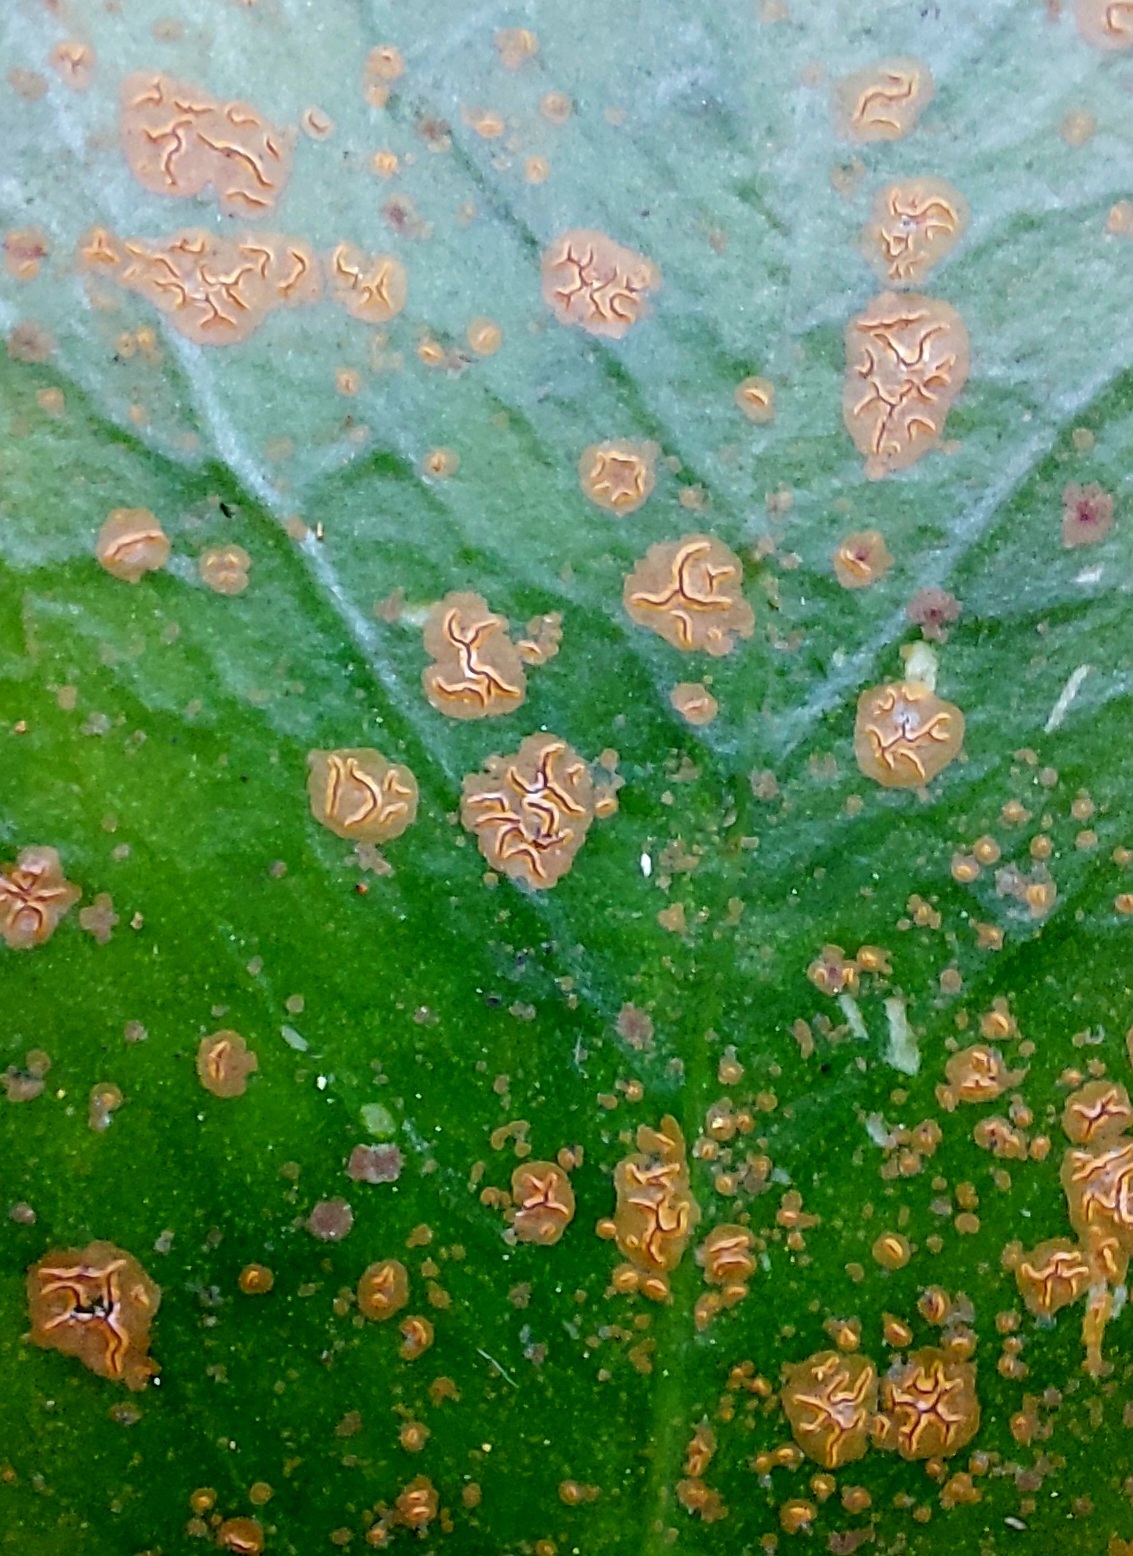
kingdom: Fungi
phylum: Ascomycota
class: Arthoniomycetes
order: Arthoniales
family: Roccellaceae
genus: Enterographa
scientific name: Enterographa bella
